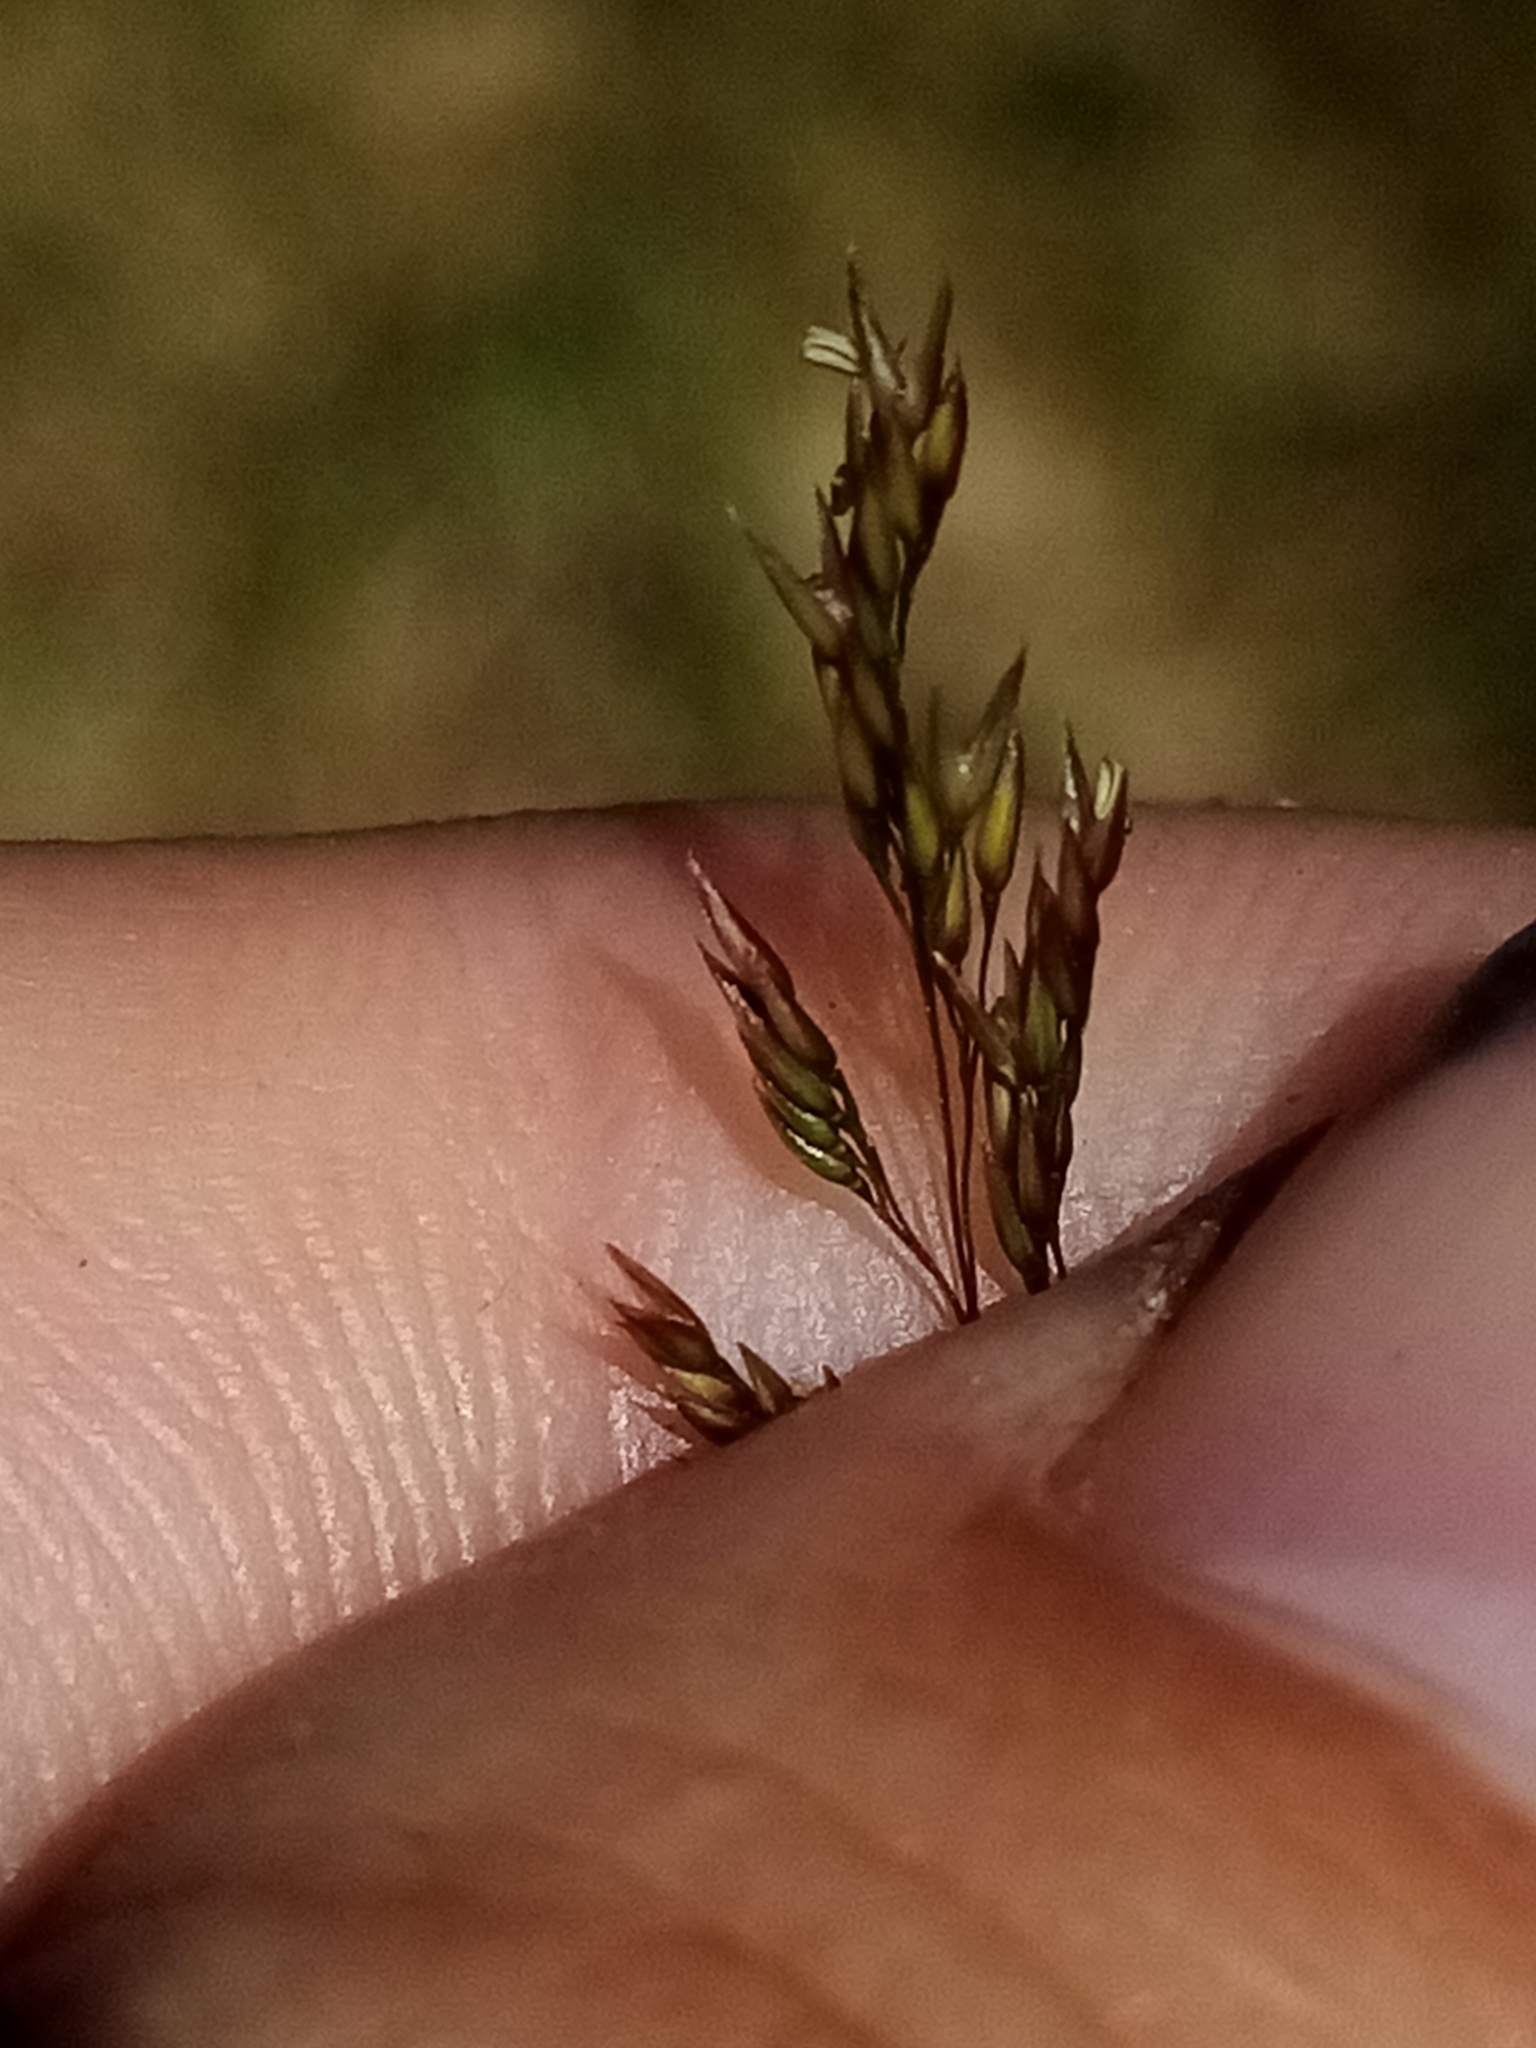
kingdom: Plantae
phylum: Tracheophyta
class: Liliopsida
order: Poales
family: Poaceae
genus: Agrostis
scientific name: Agrostis capillaris
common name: Colonial bentgrass
